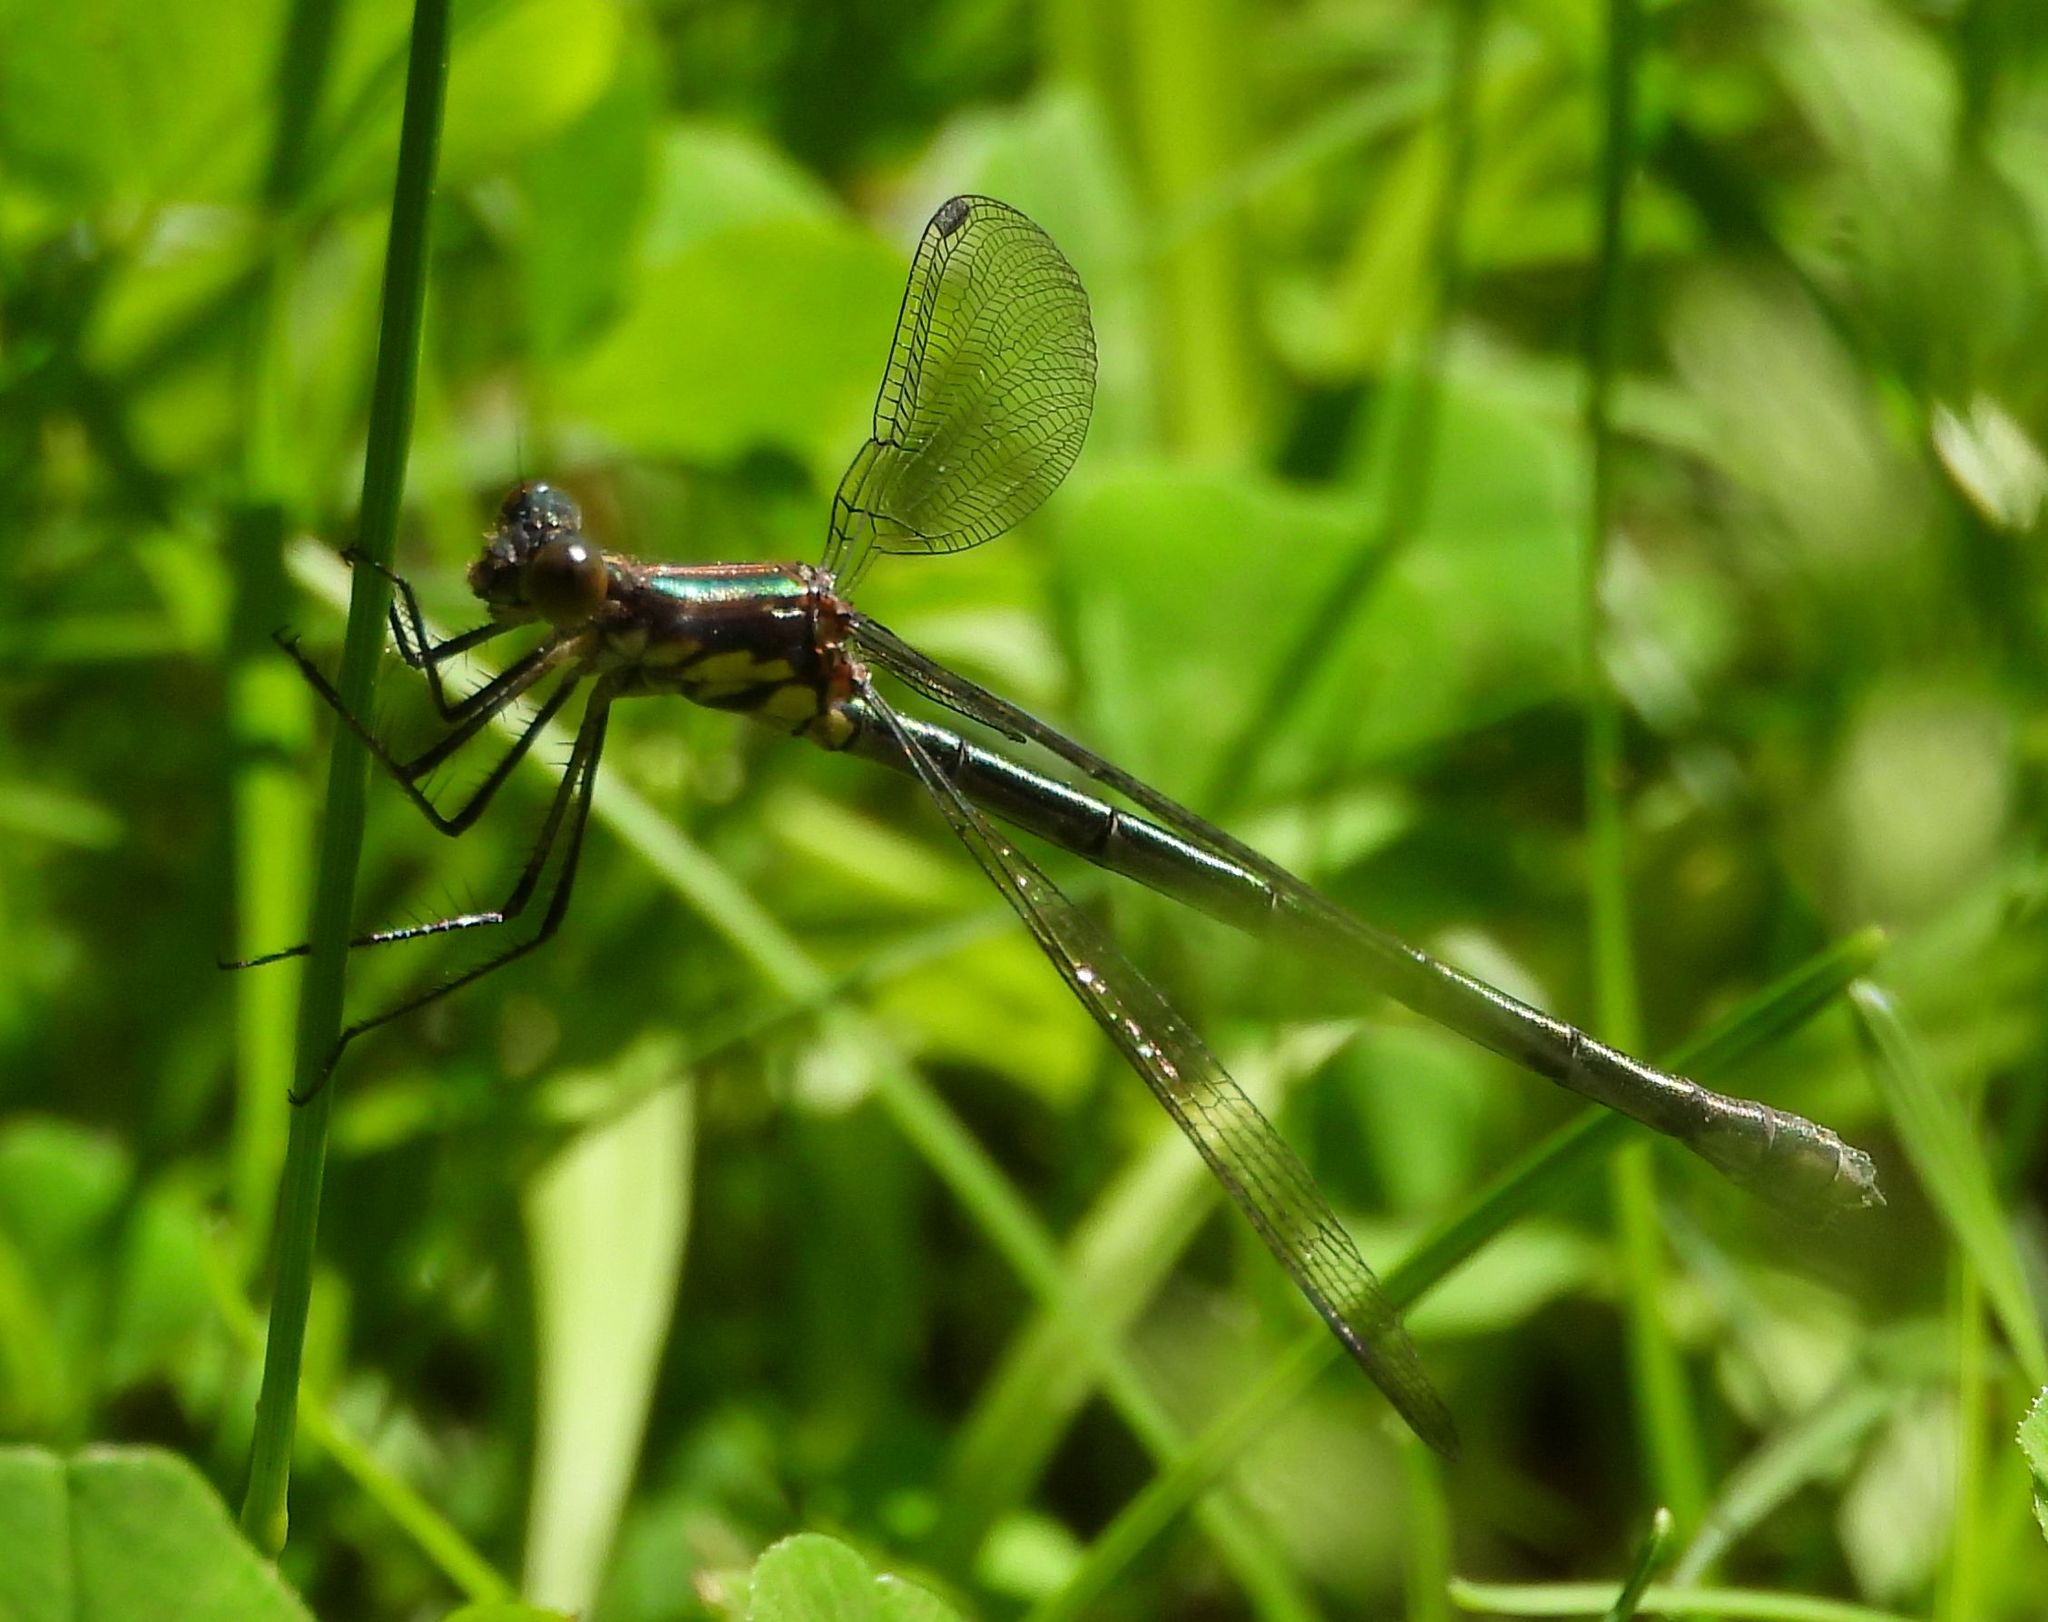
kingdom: Animalia
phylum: Arthropoda
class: Insecta
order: Odonata
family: Lestidae
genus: Lestes
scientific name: Lestes eurinus
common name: Amber-winged spreadwing
